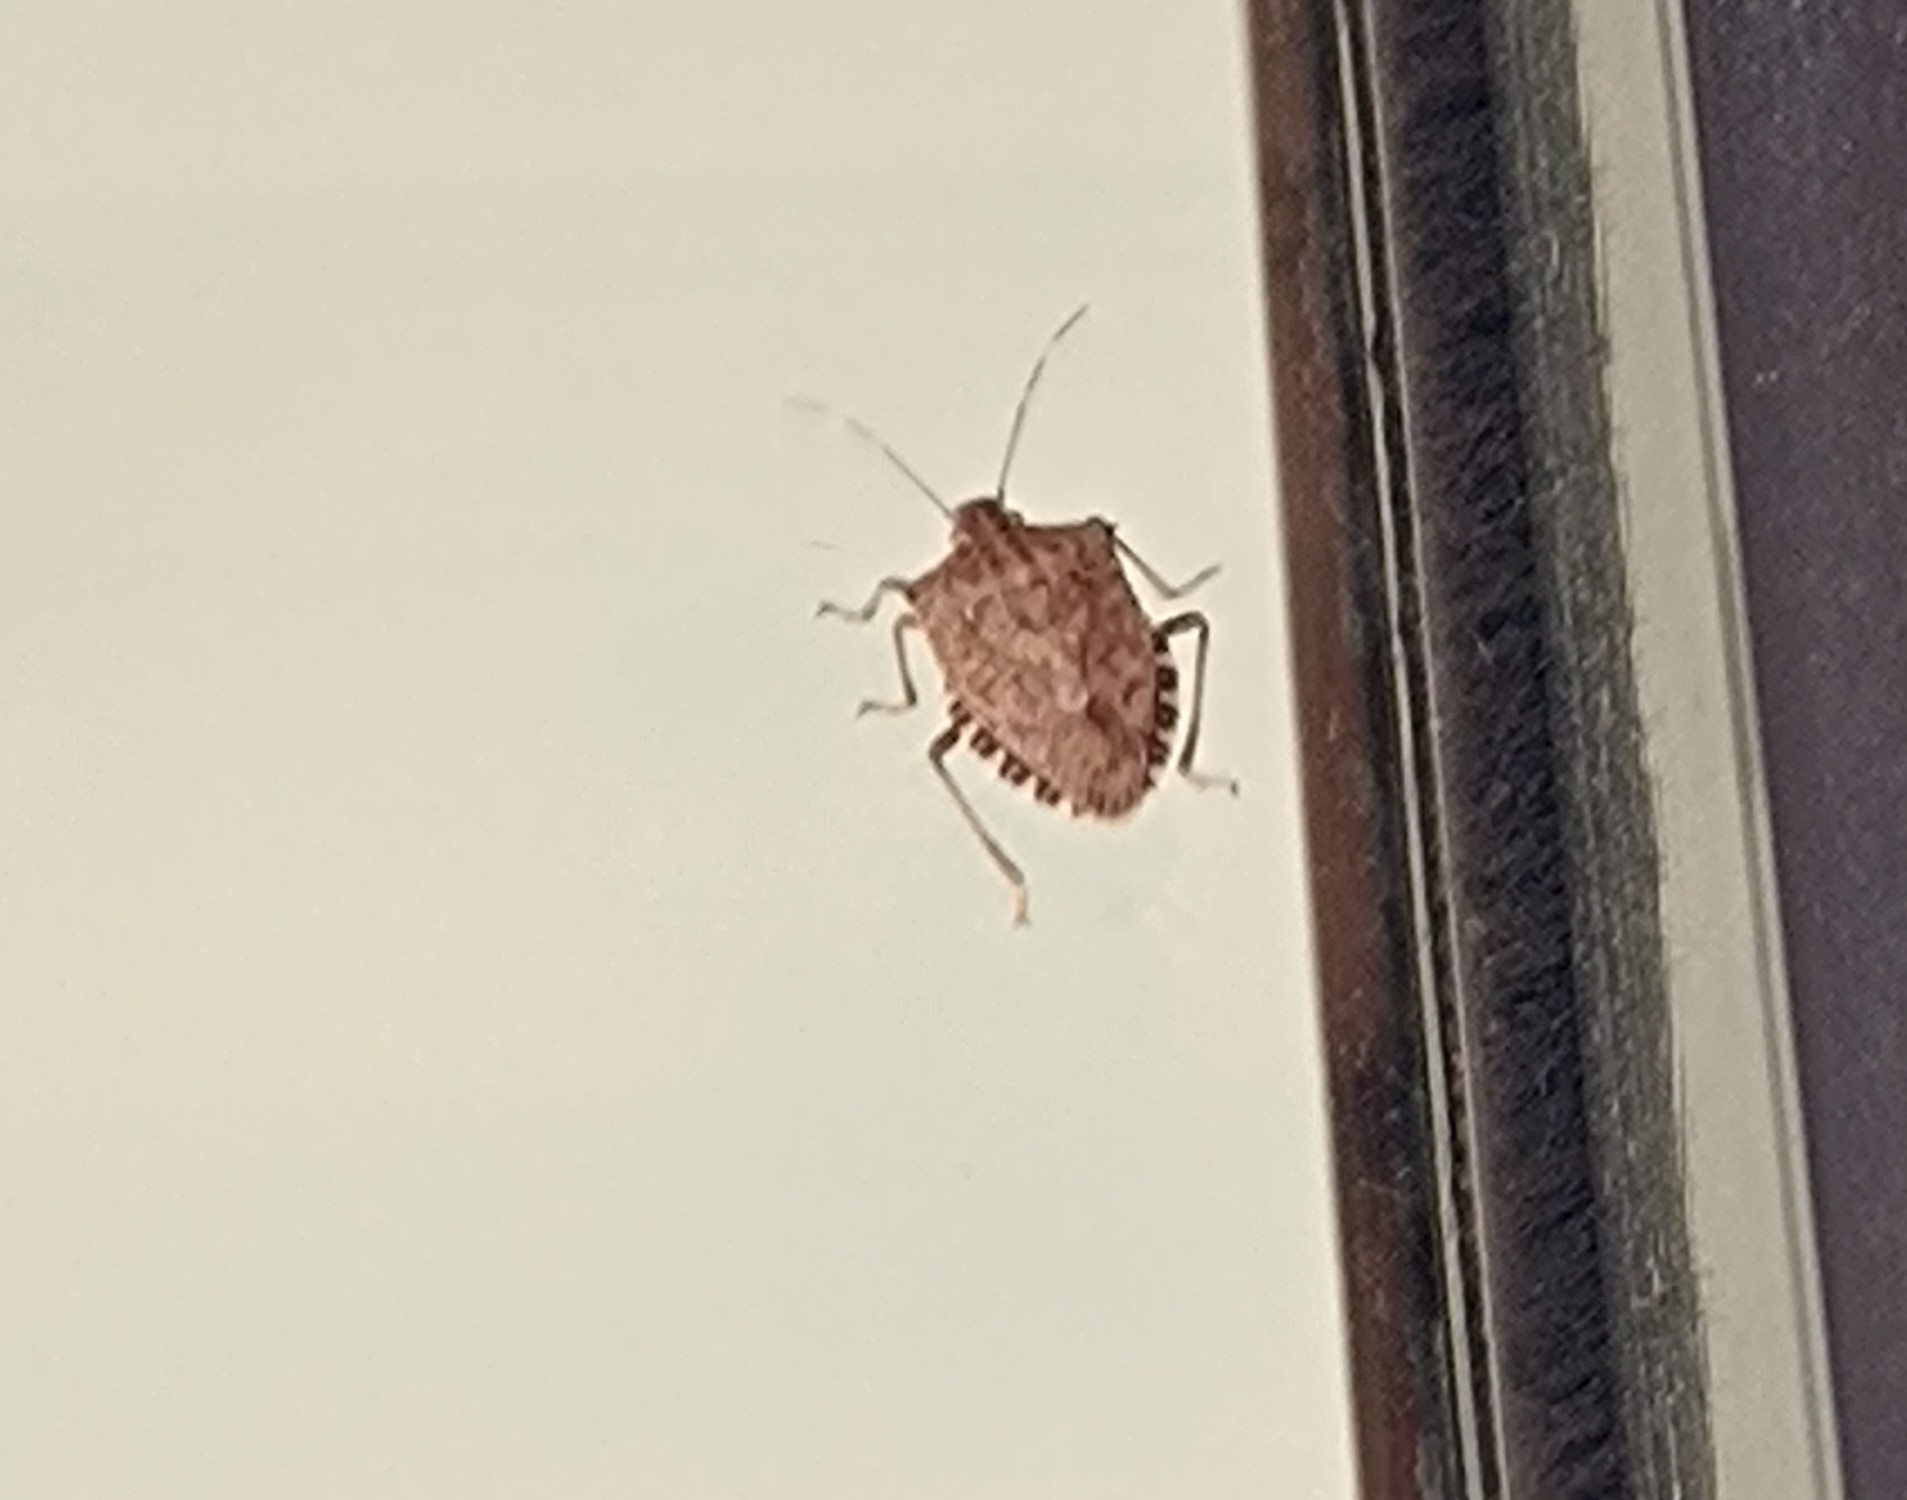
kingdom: Animalia
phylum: Arthropoda
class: Insecta
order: Hemiptera
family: Pentatomidae
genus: Halyomorpha
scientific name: Halyomorpha halys
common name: Brown marmorated stink bug
